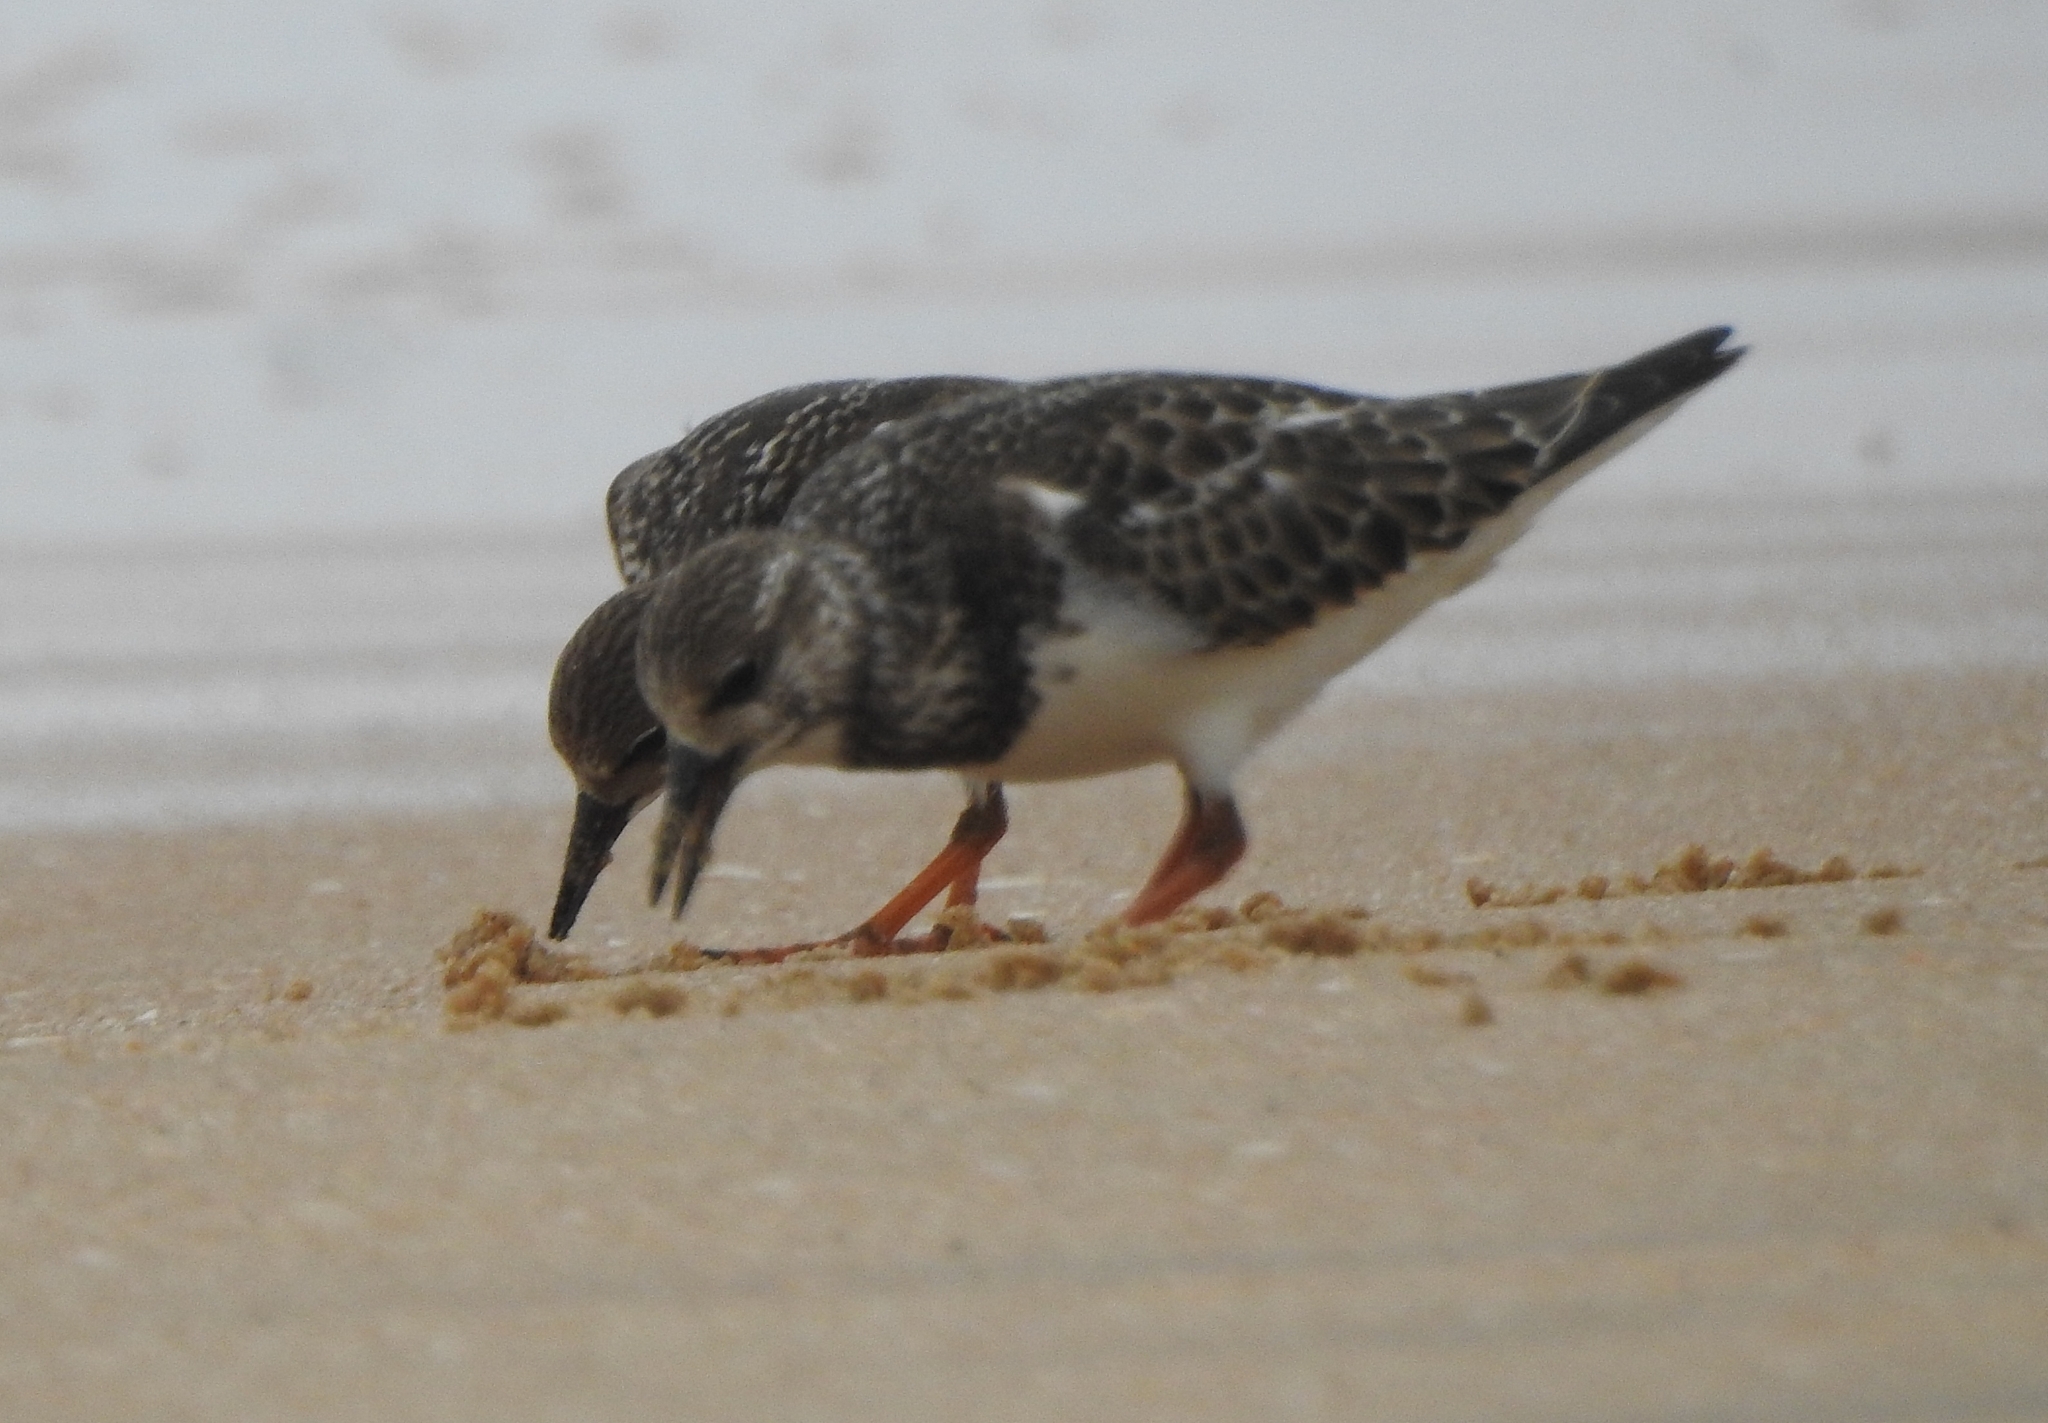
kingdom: Animalia
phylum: Chordata
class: Aves
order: Charadriiformes
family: Scolopacidae
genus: Arenaria
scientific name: Arenaria interpres
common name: Ruddy turnstone
